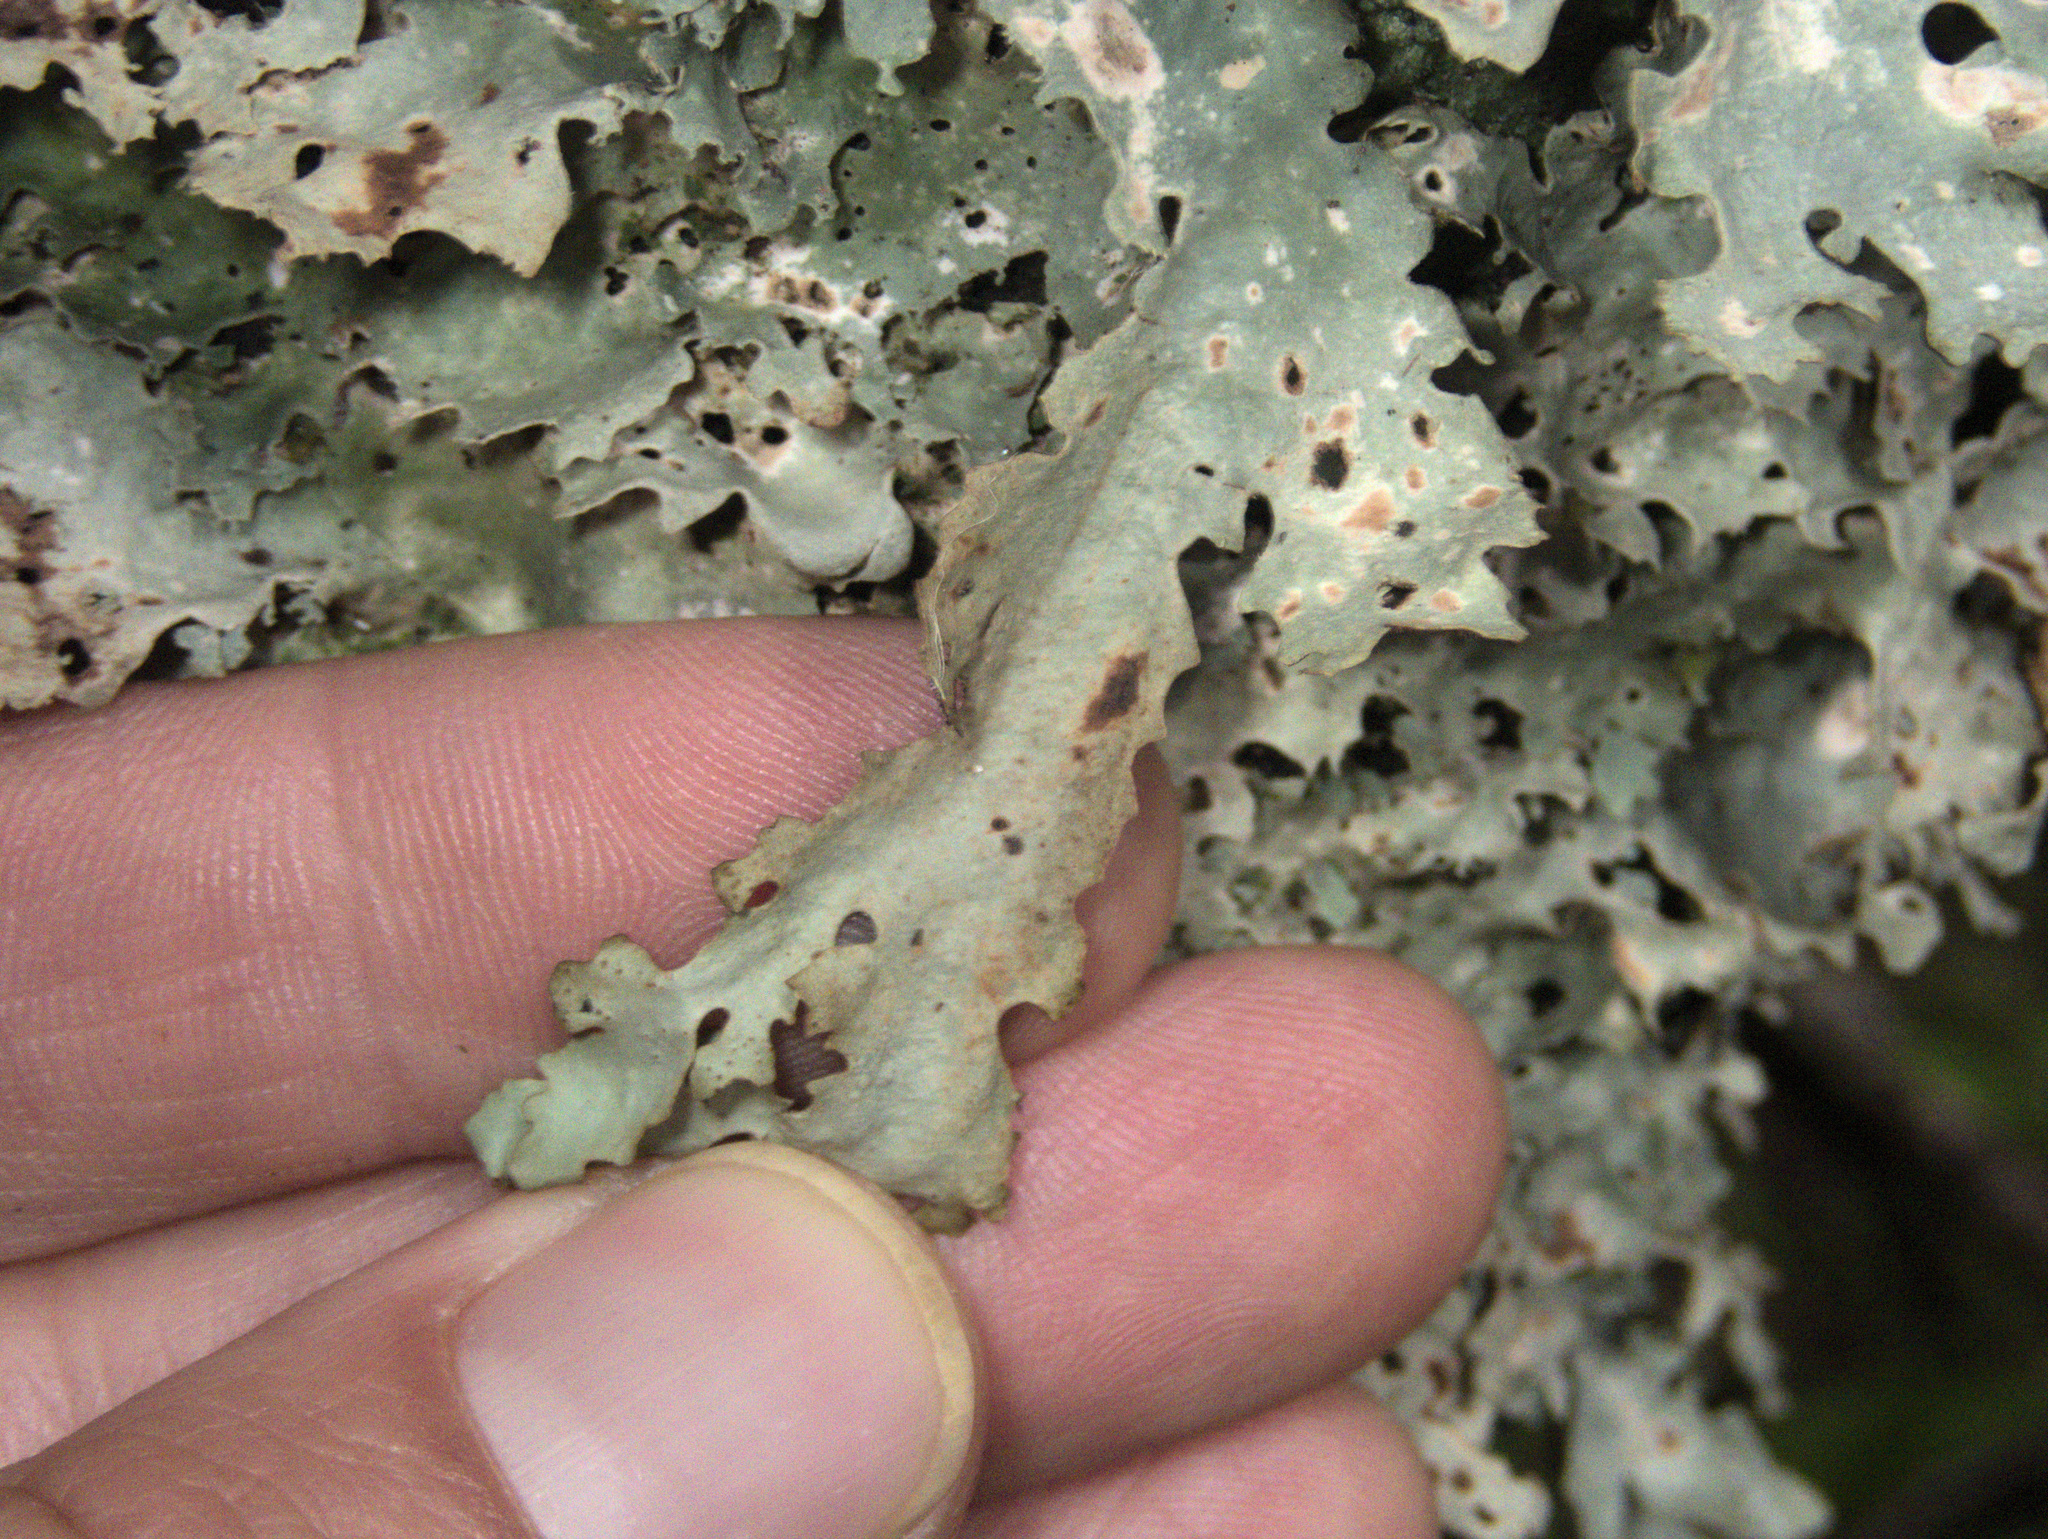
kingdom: Fungi
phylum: Ascomycota
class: Lecanoromycetes
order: Peltigerales
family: Lobariaceae
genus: Sticta
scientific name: Sticta subcaperata
